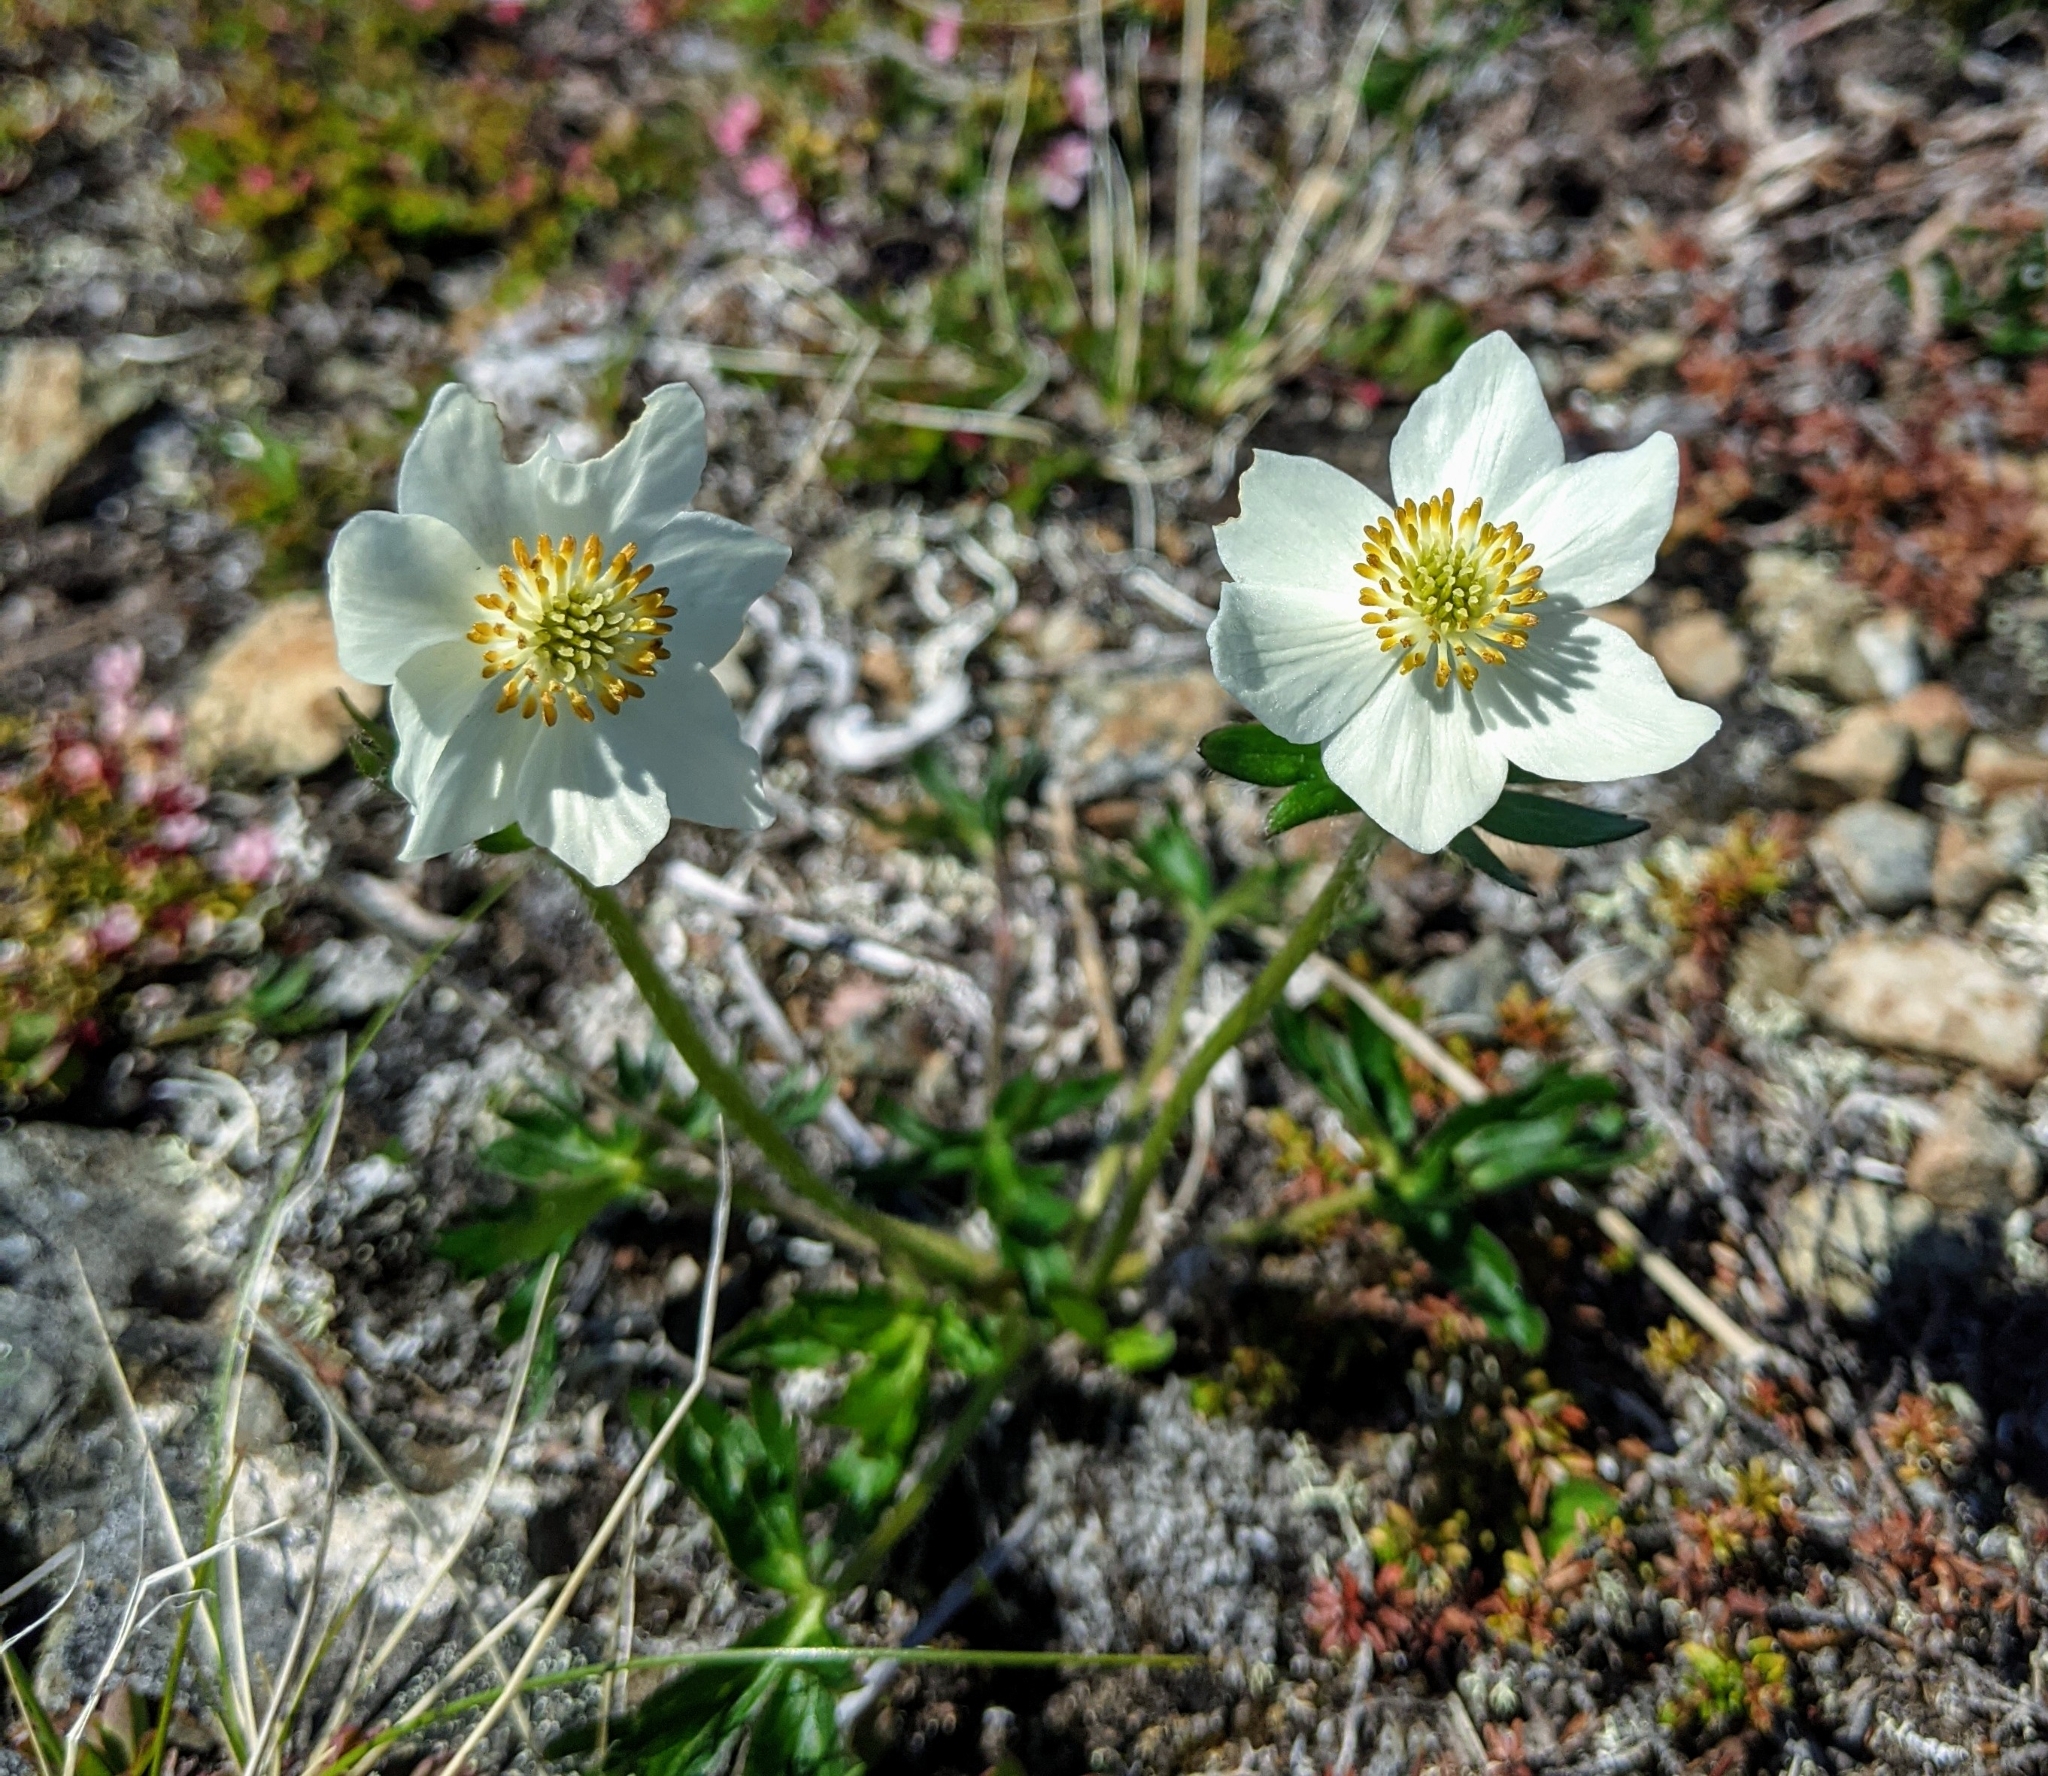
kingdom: Plantae
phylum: Tracheophyta
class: Magnoliopsida
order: Ranunculales
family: Ranunculaceae
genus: Anemonastrum
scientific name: Anemonastrum narcissiflorum
